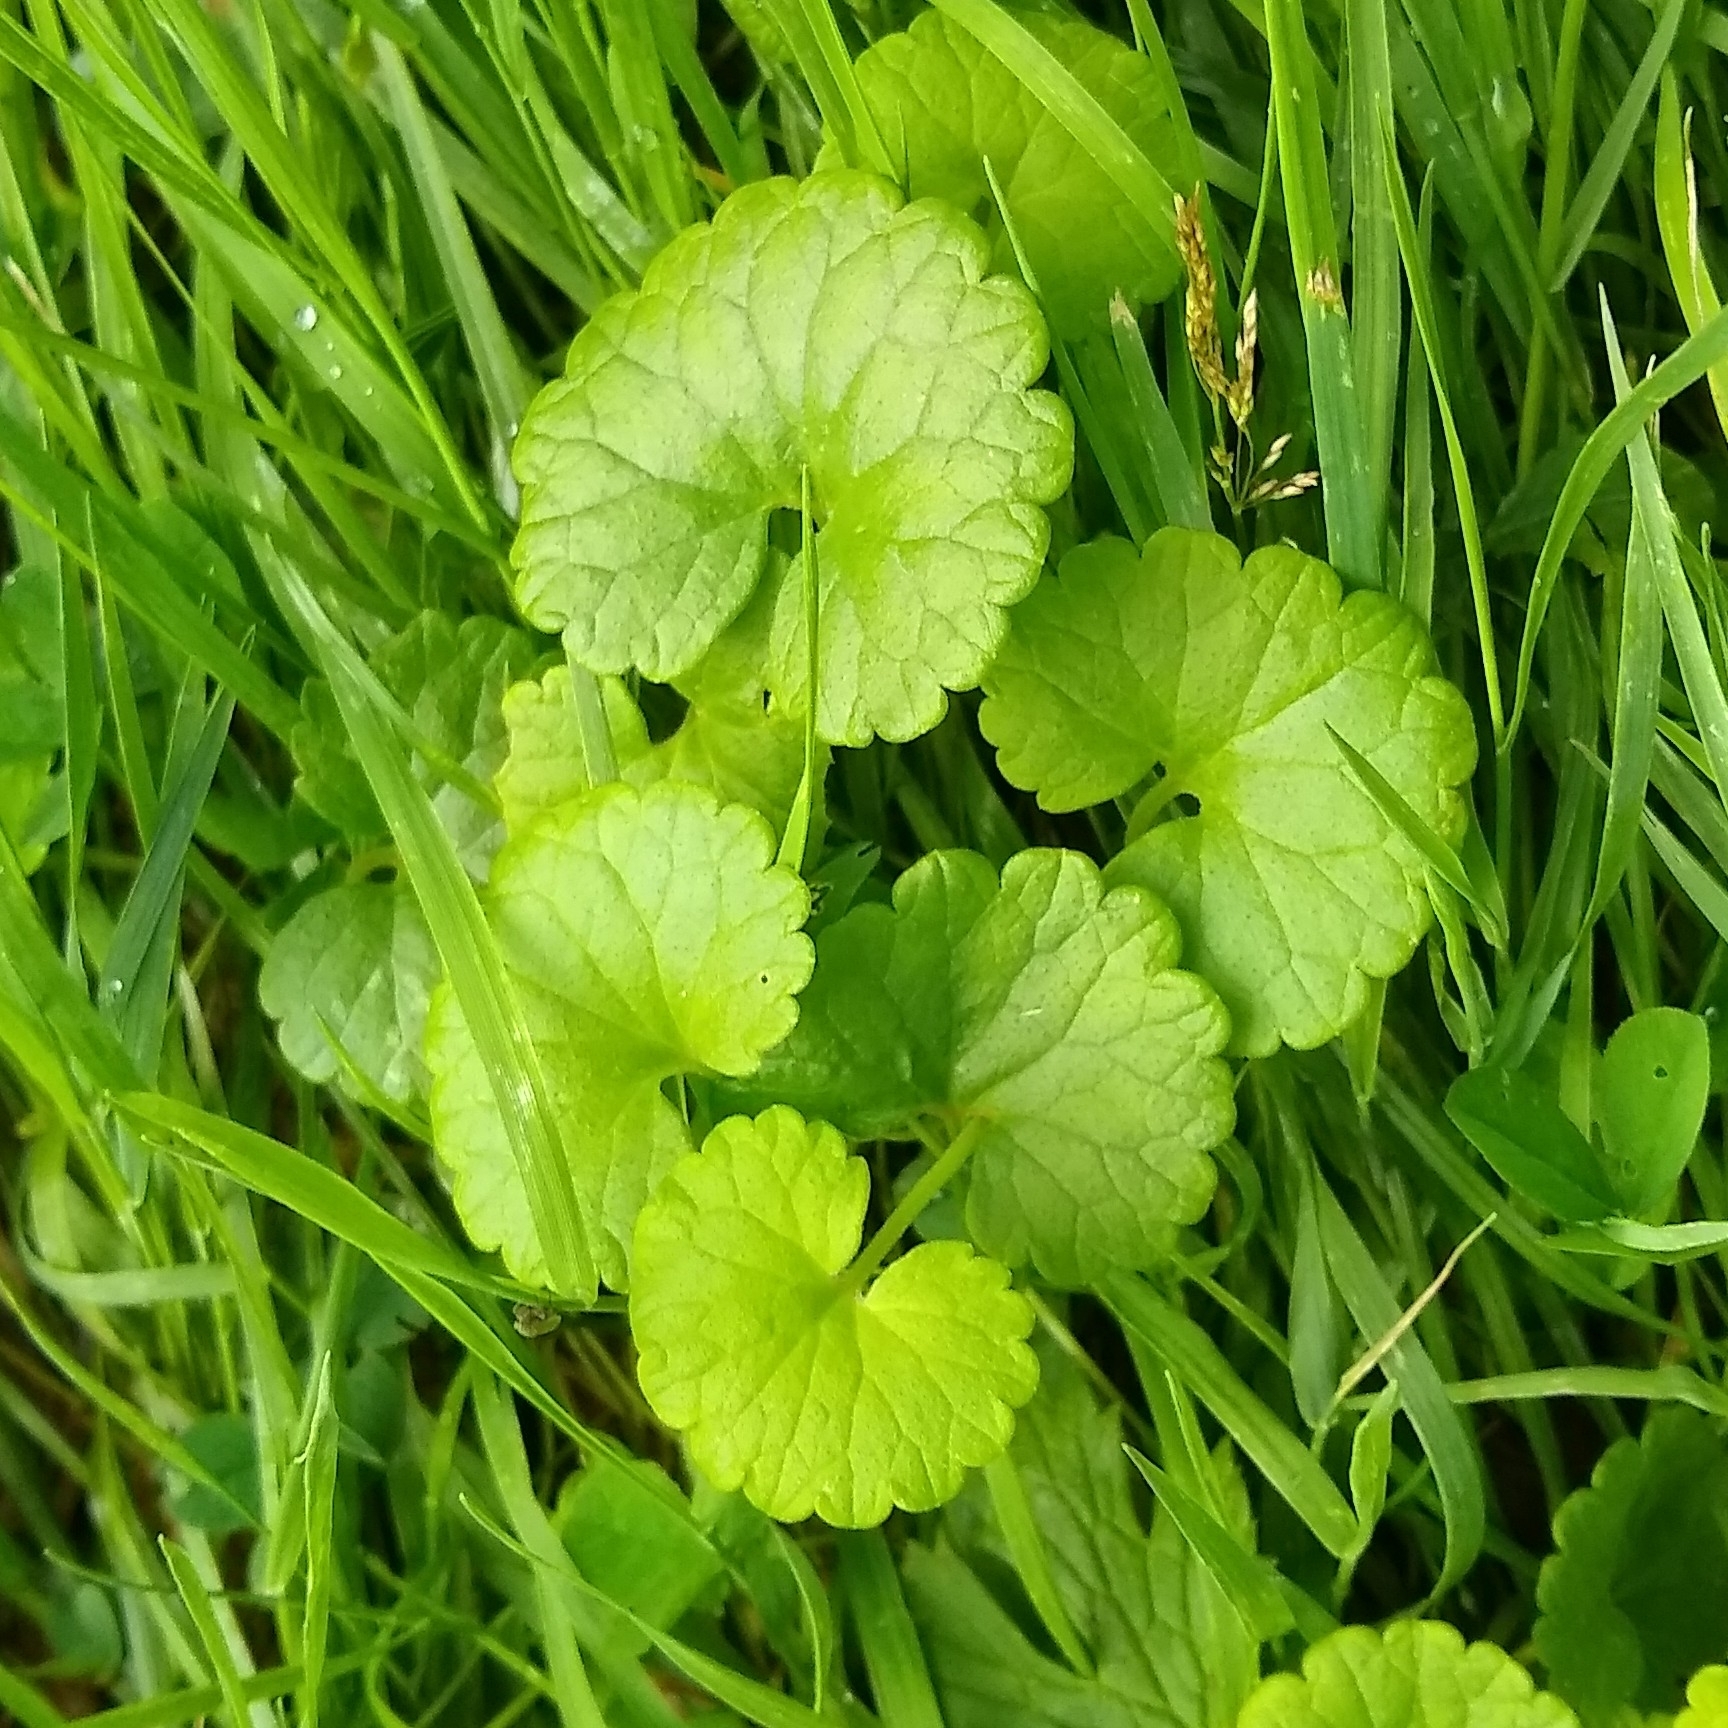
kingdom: Plantae
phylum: Tracheophyta
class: Magnoliopsida
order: Lamiales
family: Lamiaceae
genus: Glechoma
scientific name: Glechoma hederacea
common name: Ground ivy
